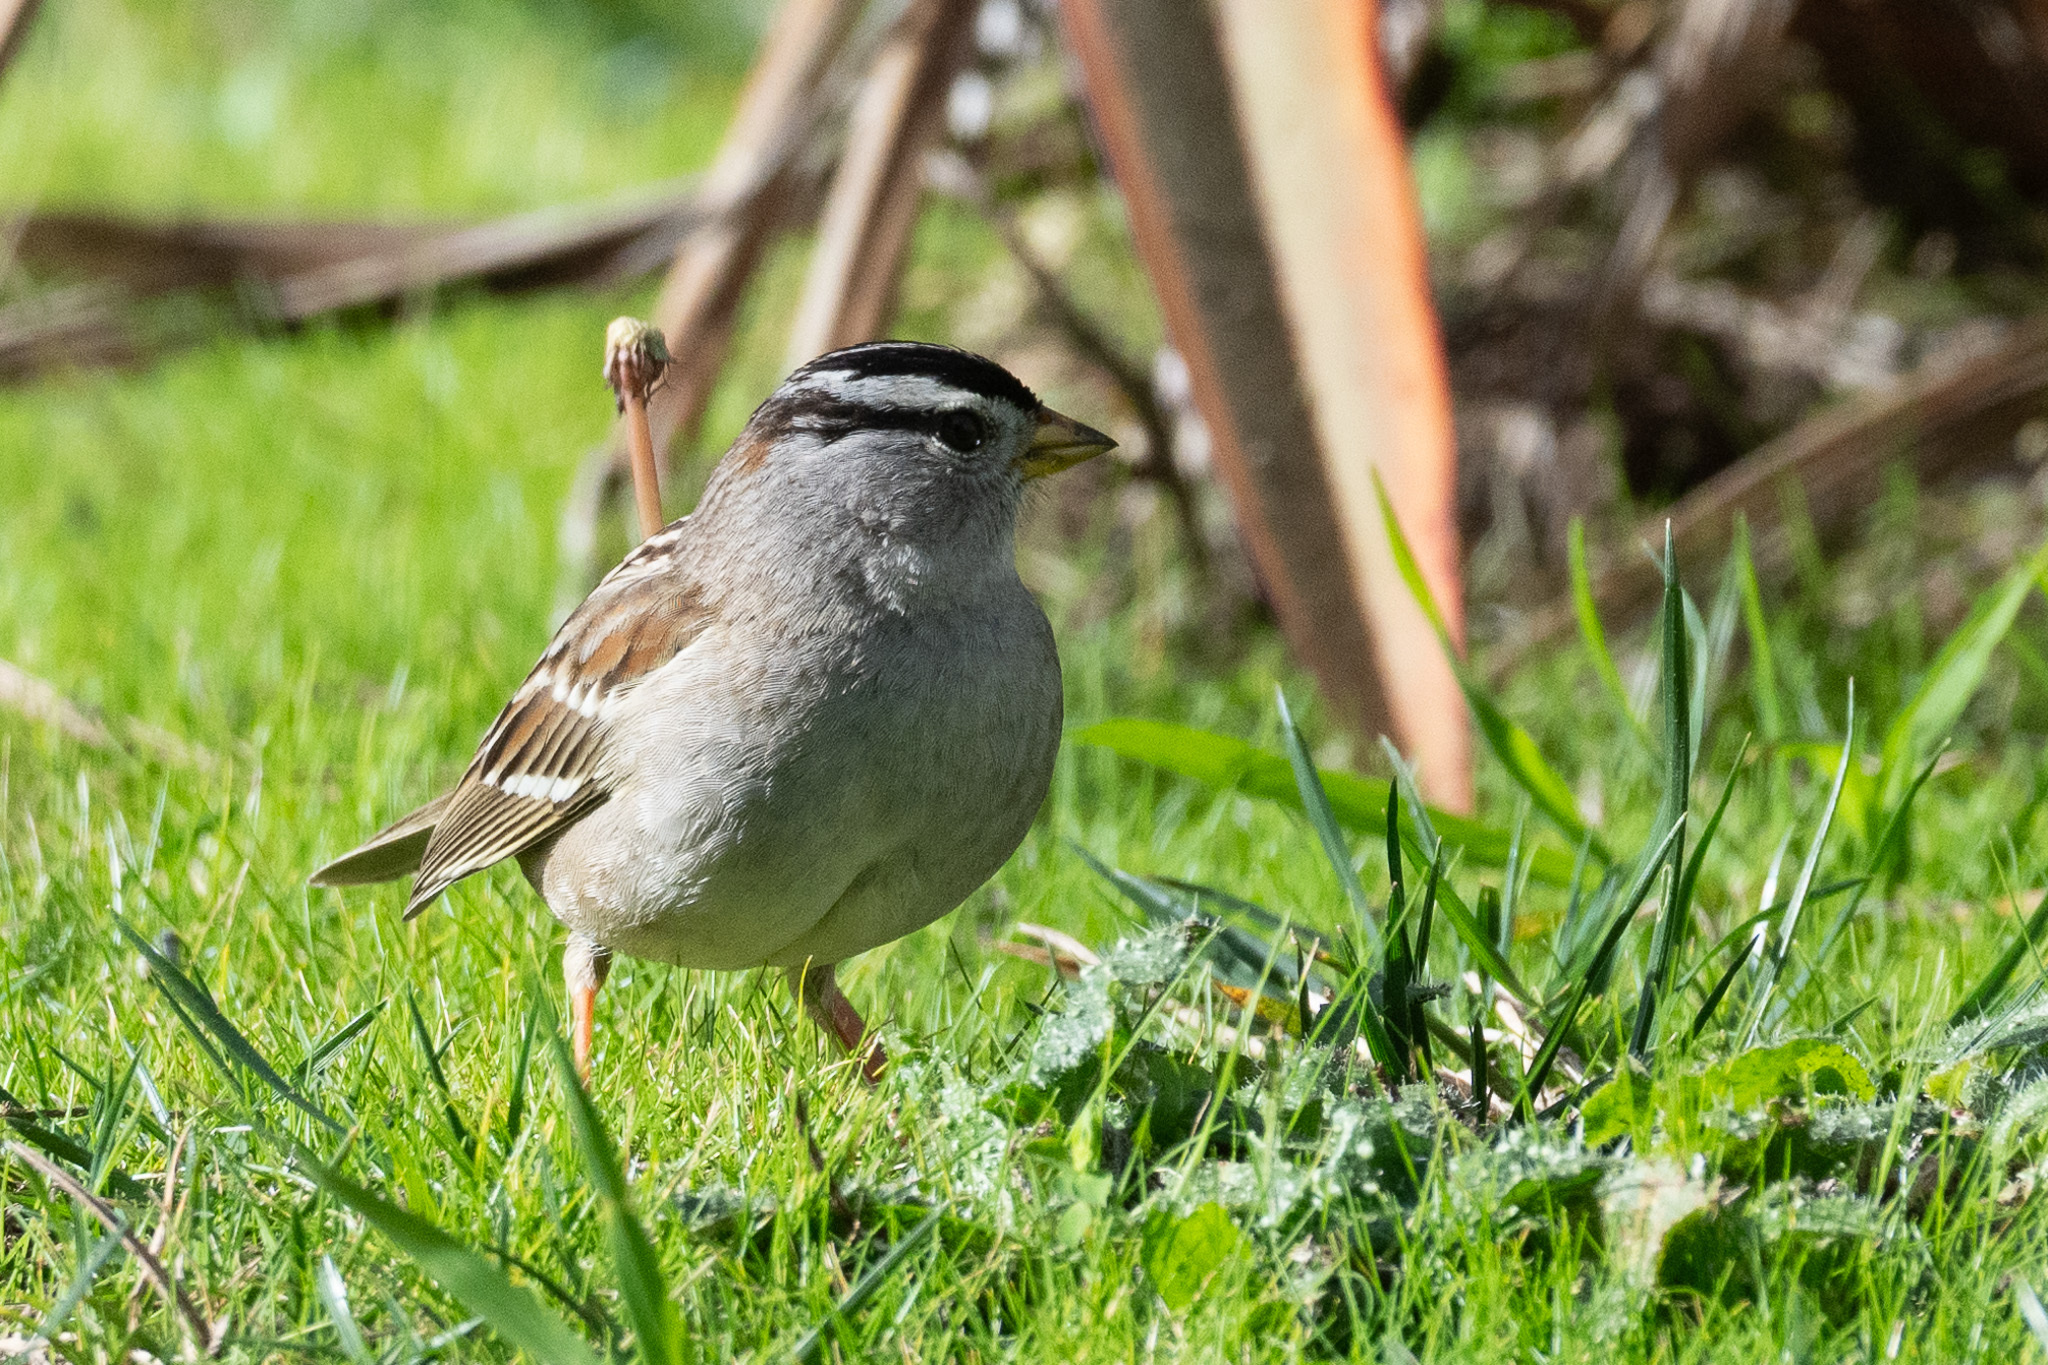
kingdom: Animalia
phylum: Chordata
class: Aves
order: Passeriformes
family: Passerellidae
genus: Zonotrichia
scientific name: Zonotrichia leucophrys
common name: White-crowned sparrow
